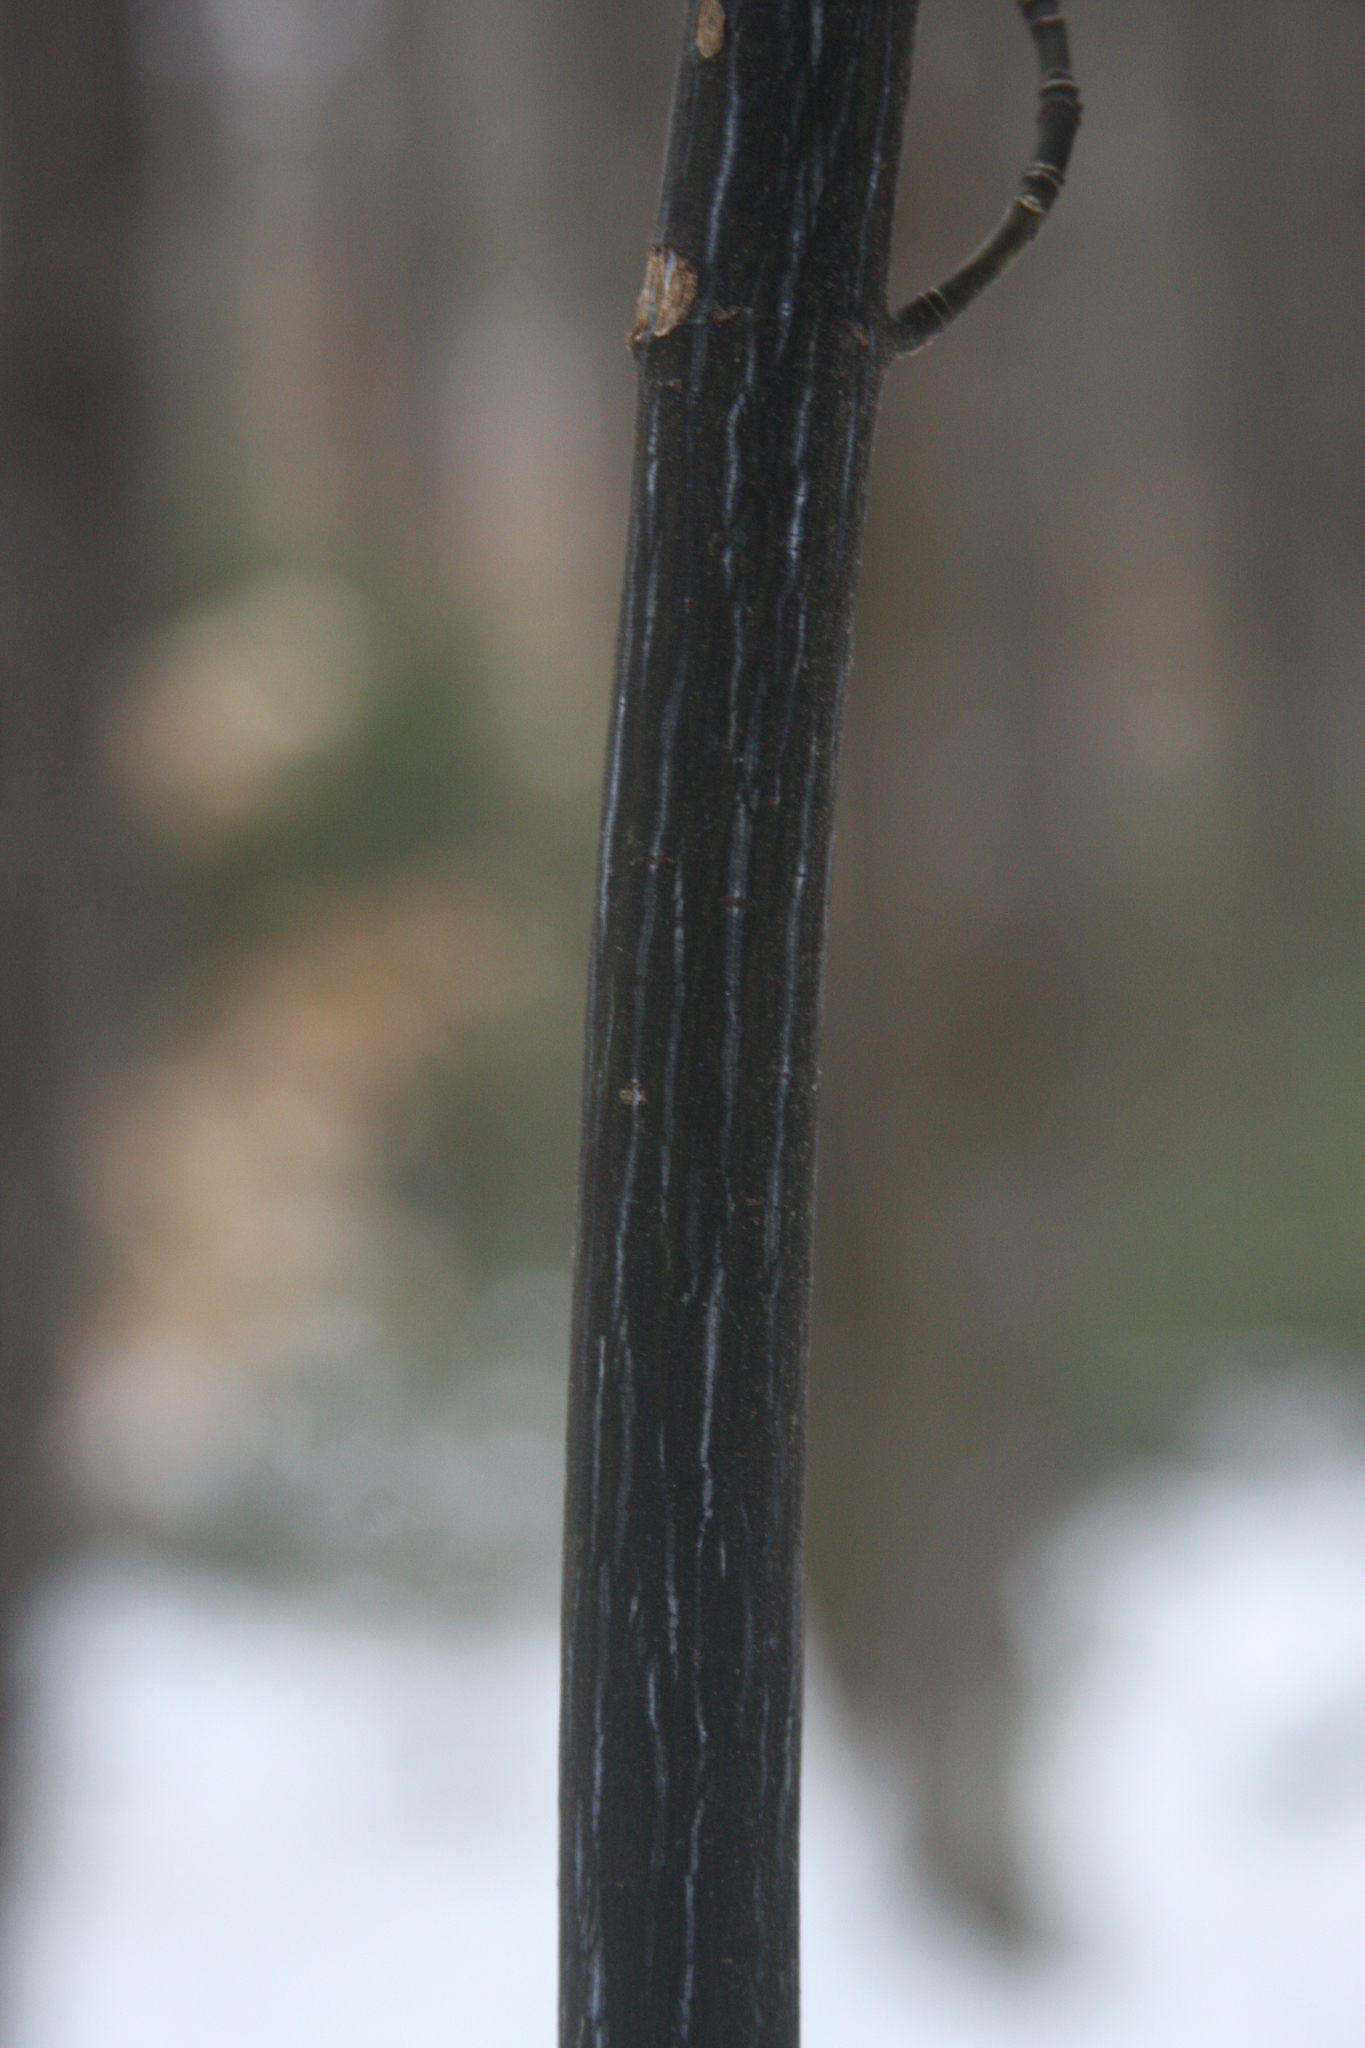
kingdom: Plantae
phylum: Tracheophyta
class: Magnoliopsida
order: Sapindales
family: Sapindaceae
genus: Acer
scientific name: Acer pensylvanicum
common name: Moosewood
